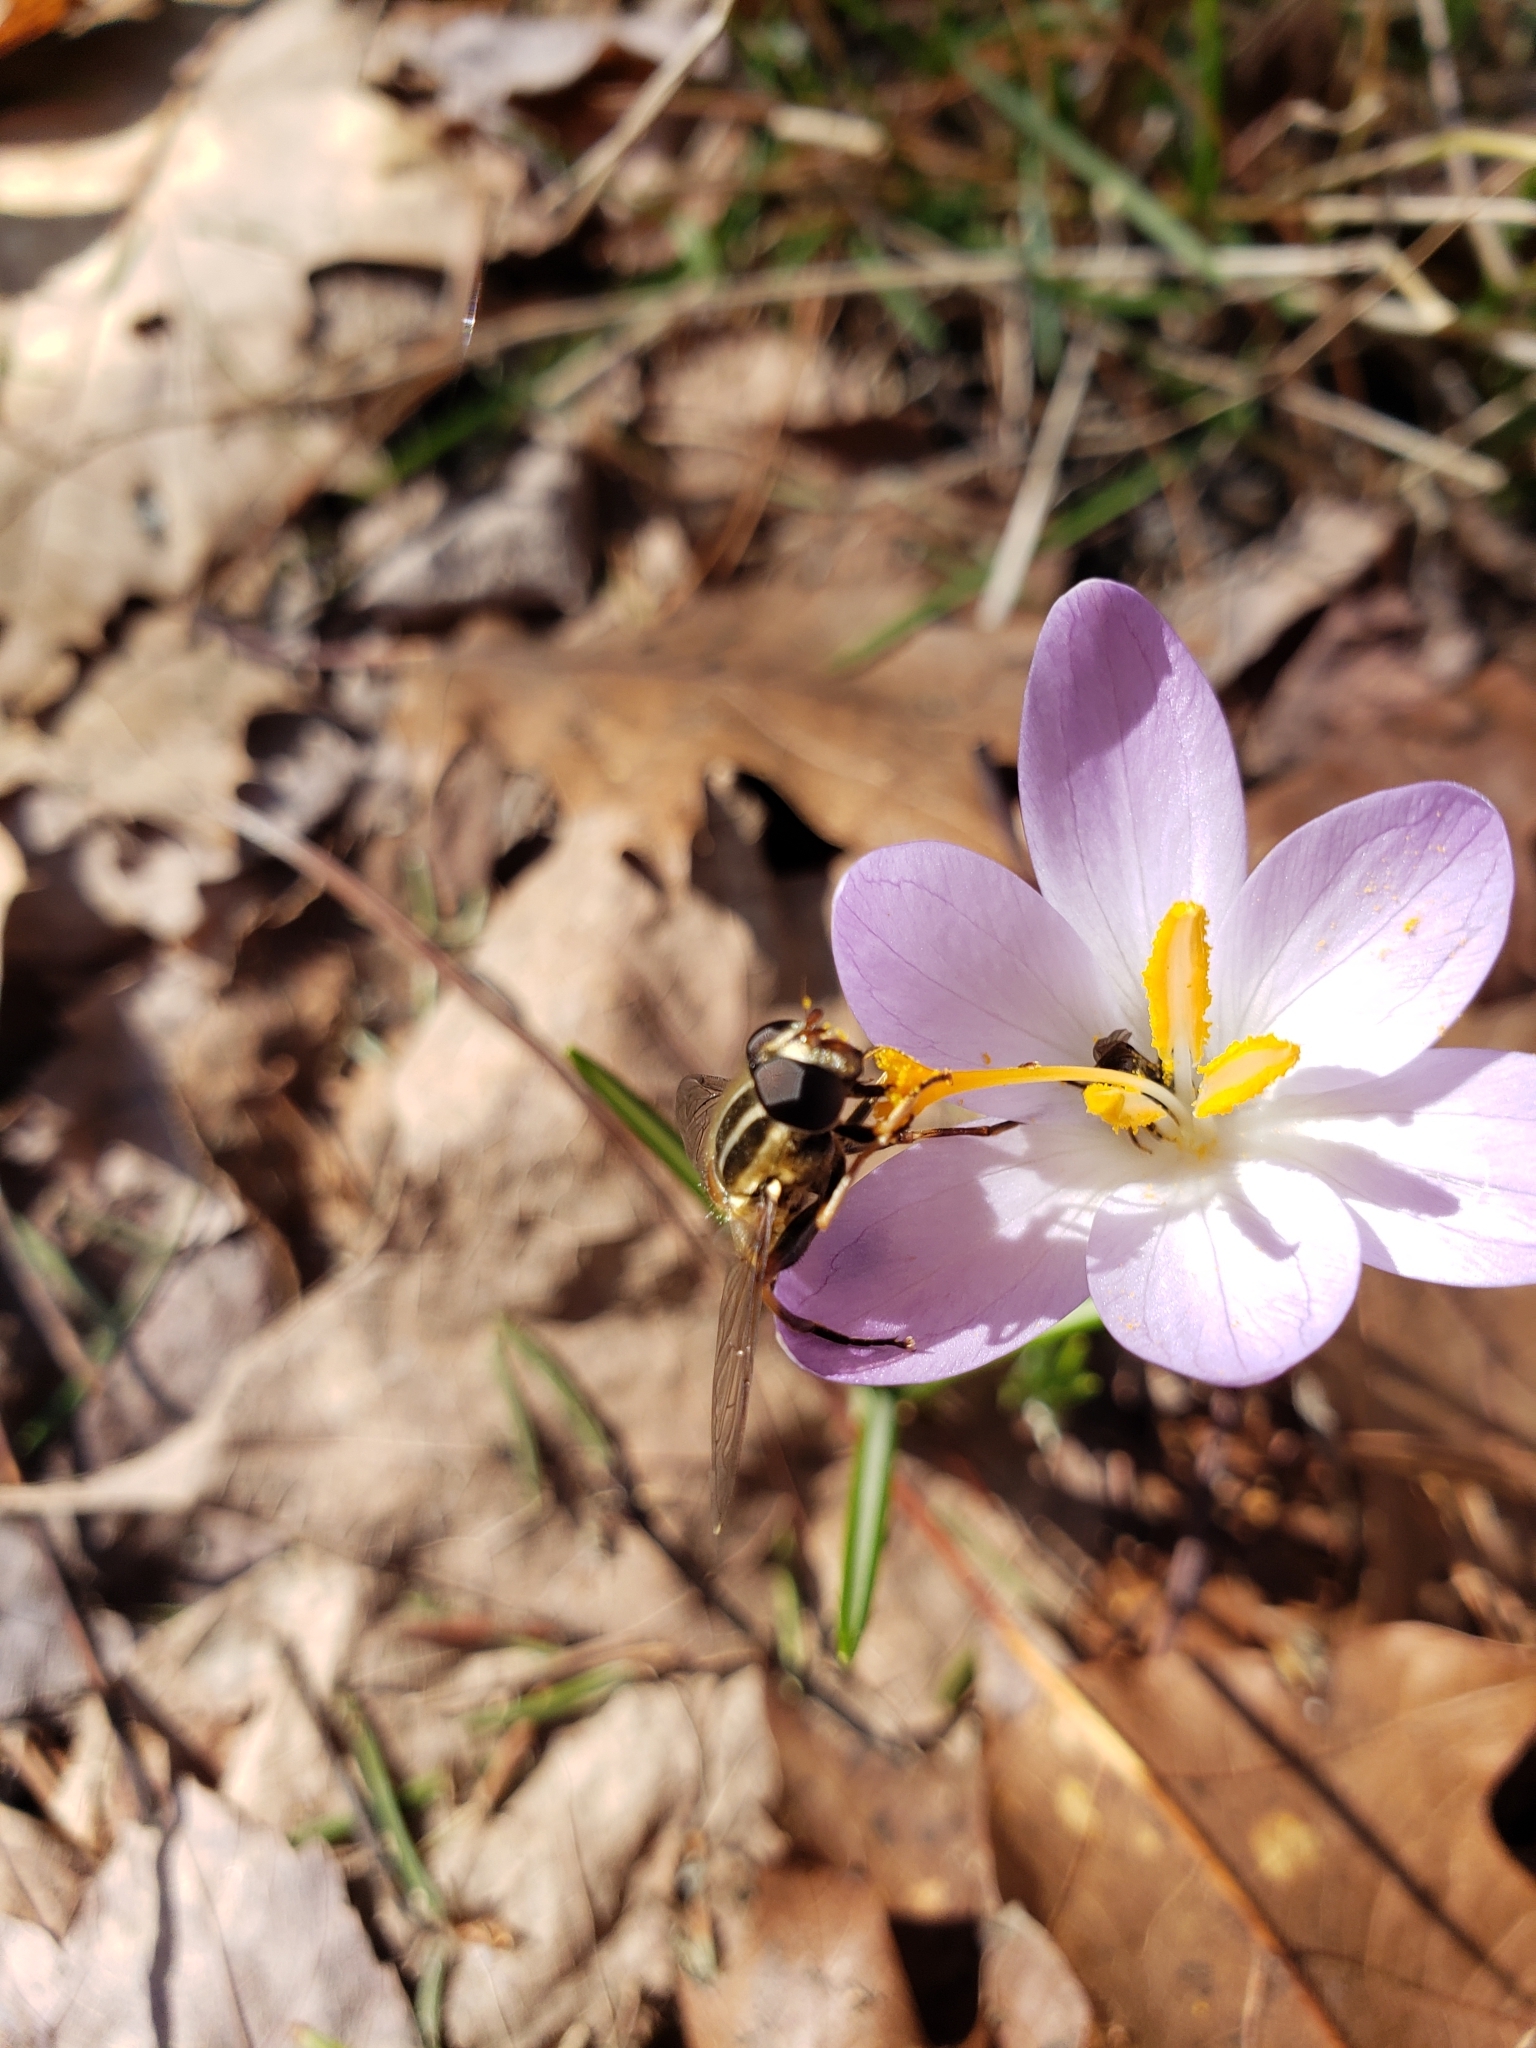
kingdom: Animalia
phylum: Arthropoda
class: Insecta
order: Diptera
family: Syrphidae
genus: Helophilus
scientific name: Helophilus fasciatus
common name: Narrow-headed marsh fly
